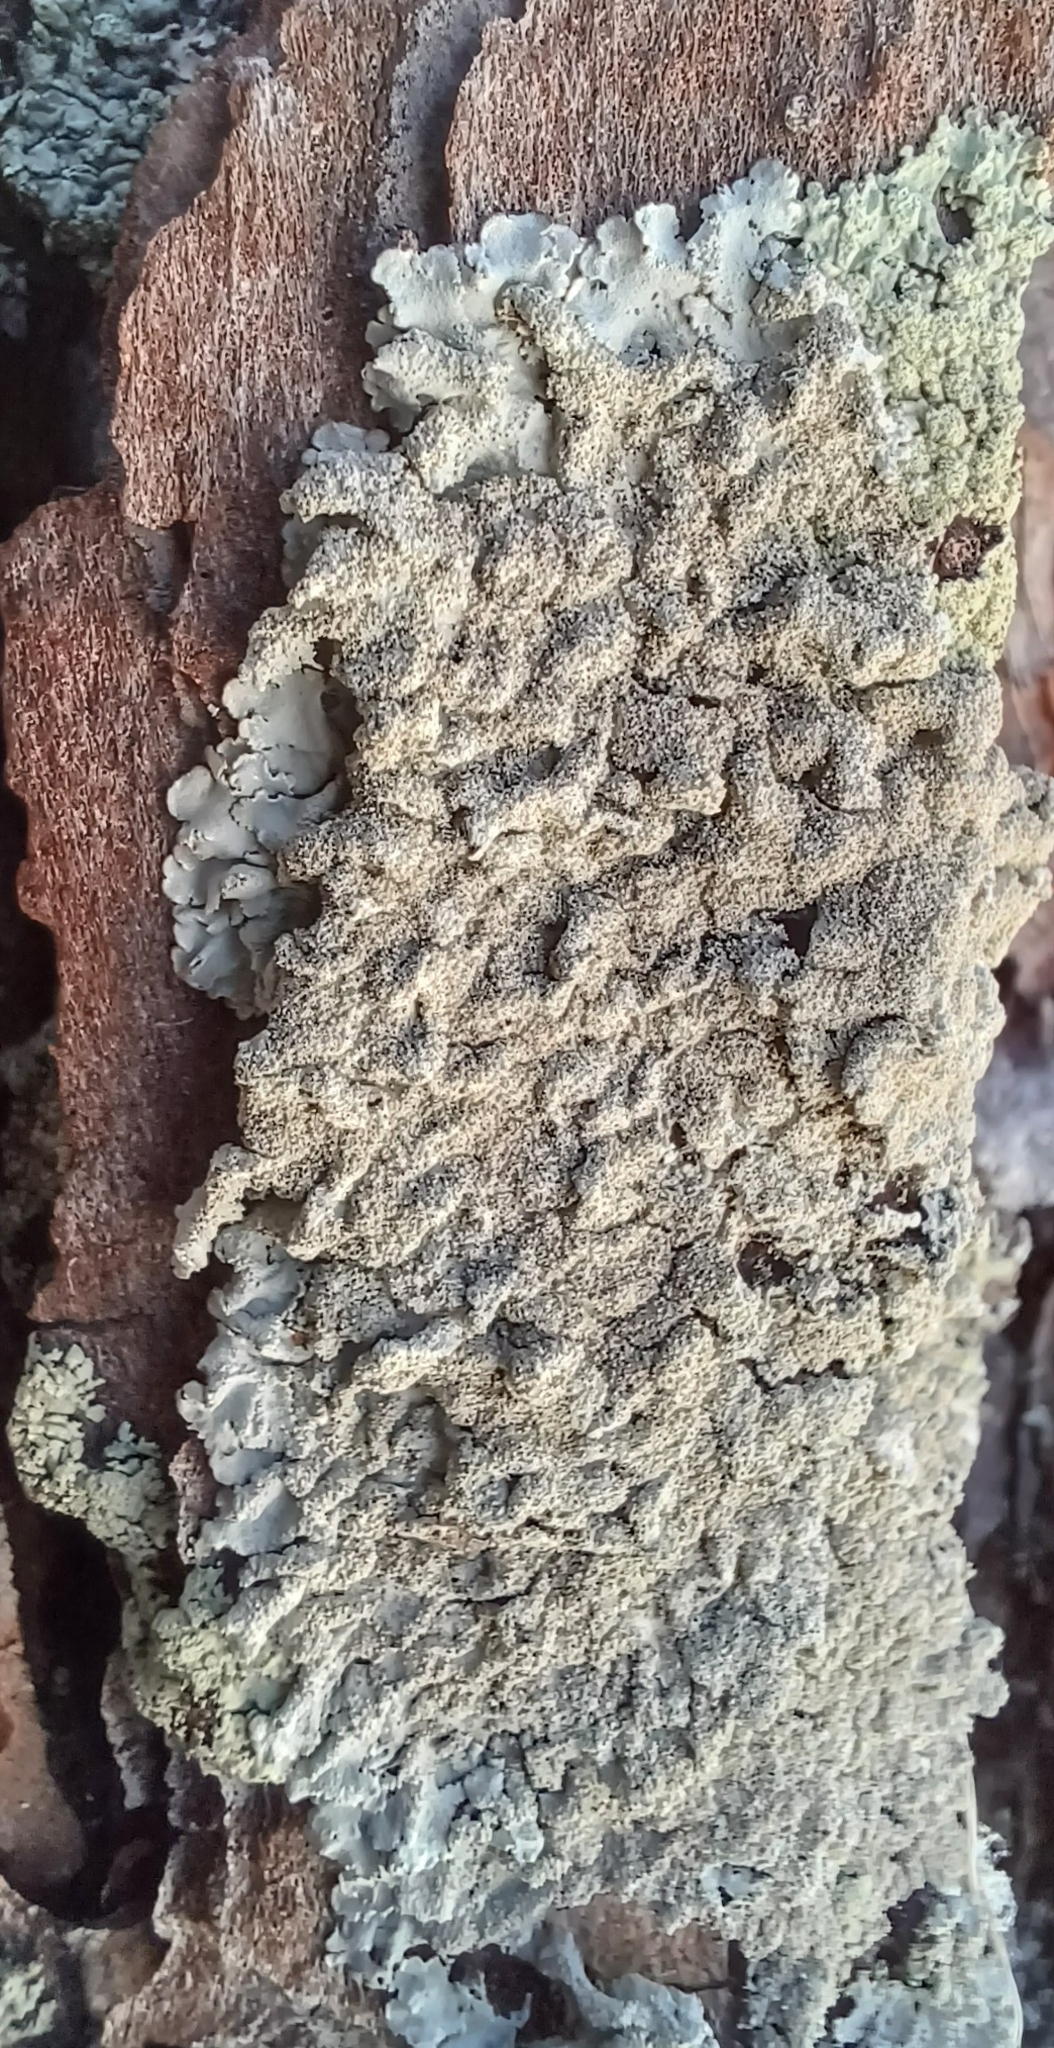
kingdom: Fungi
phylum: Ascomycota
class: Lecanoromycetes
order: Lecanorales
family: Parmeliaceae
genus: Imshaugia
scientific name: Imshaugia aleurites
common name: Salted starburst lichen
